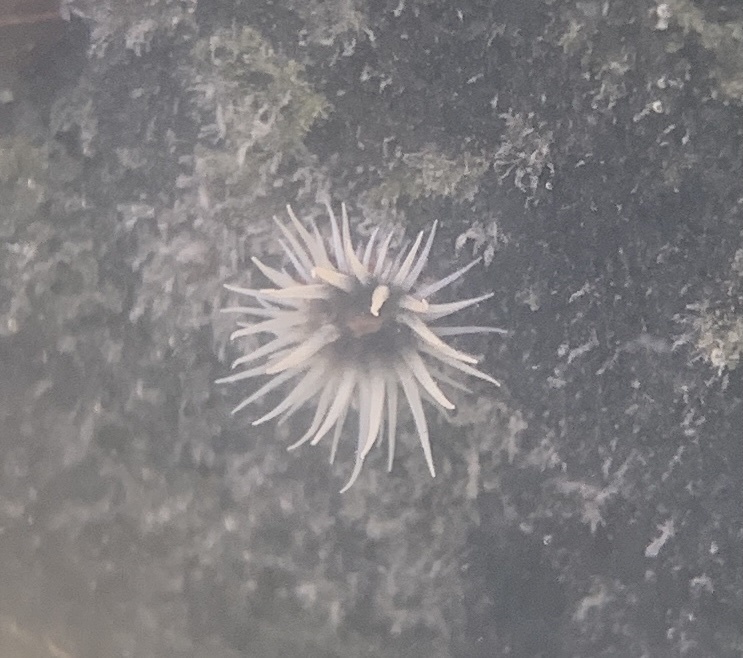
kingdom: Animalia
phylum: Cnidaria
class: Anthozoa
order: Actiniaria
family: Diadumenidae
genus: Diadumene
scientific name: Diadumene lineata
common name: Orange-striped anemone
